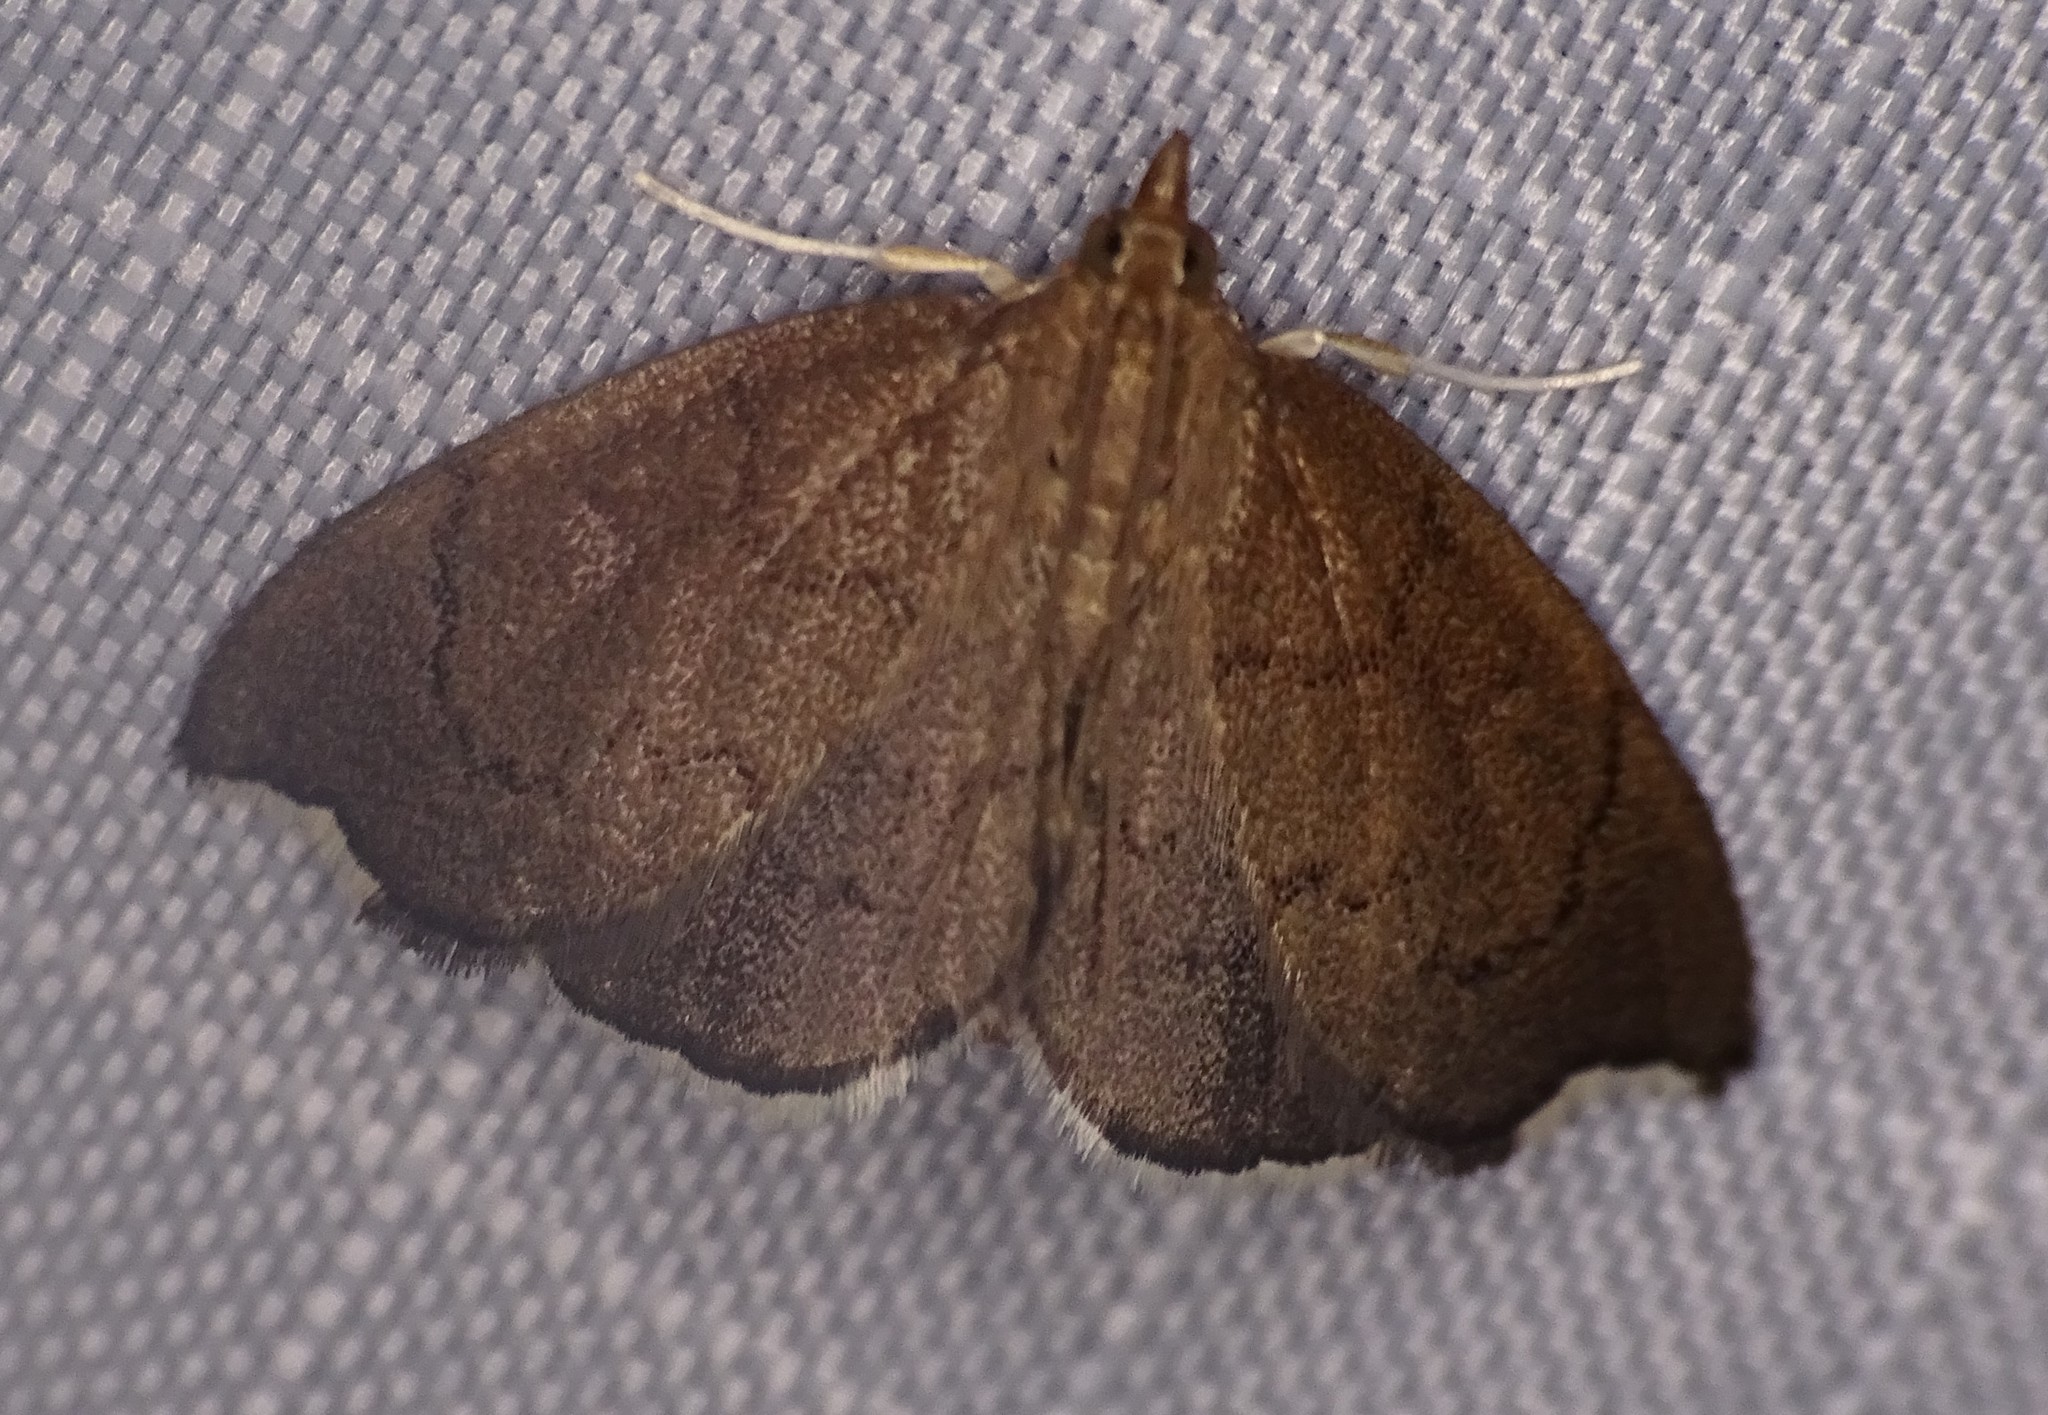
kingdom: Animalia
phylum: Arthropoda
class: Insecta
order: Lepidoptera
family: Crambidae
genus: Perispasta
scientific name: Perispasta caeculalis
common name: Titian peale's moth
